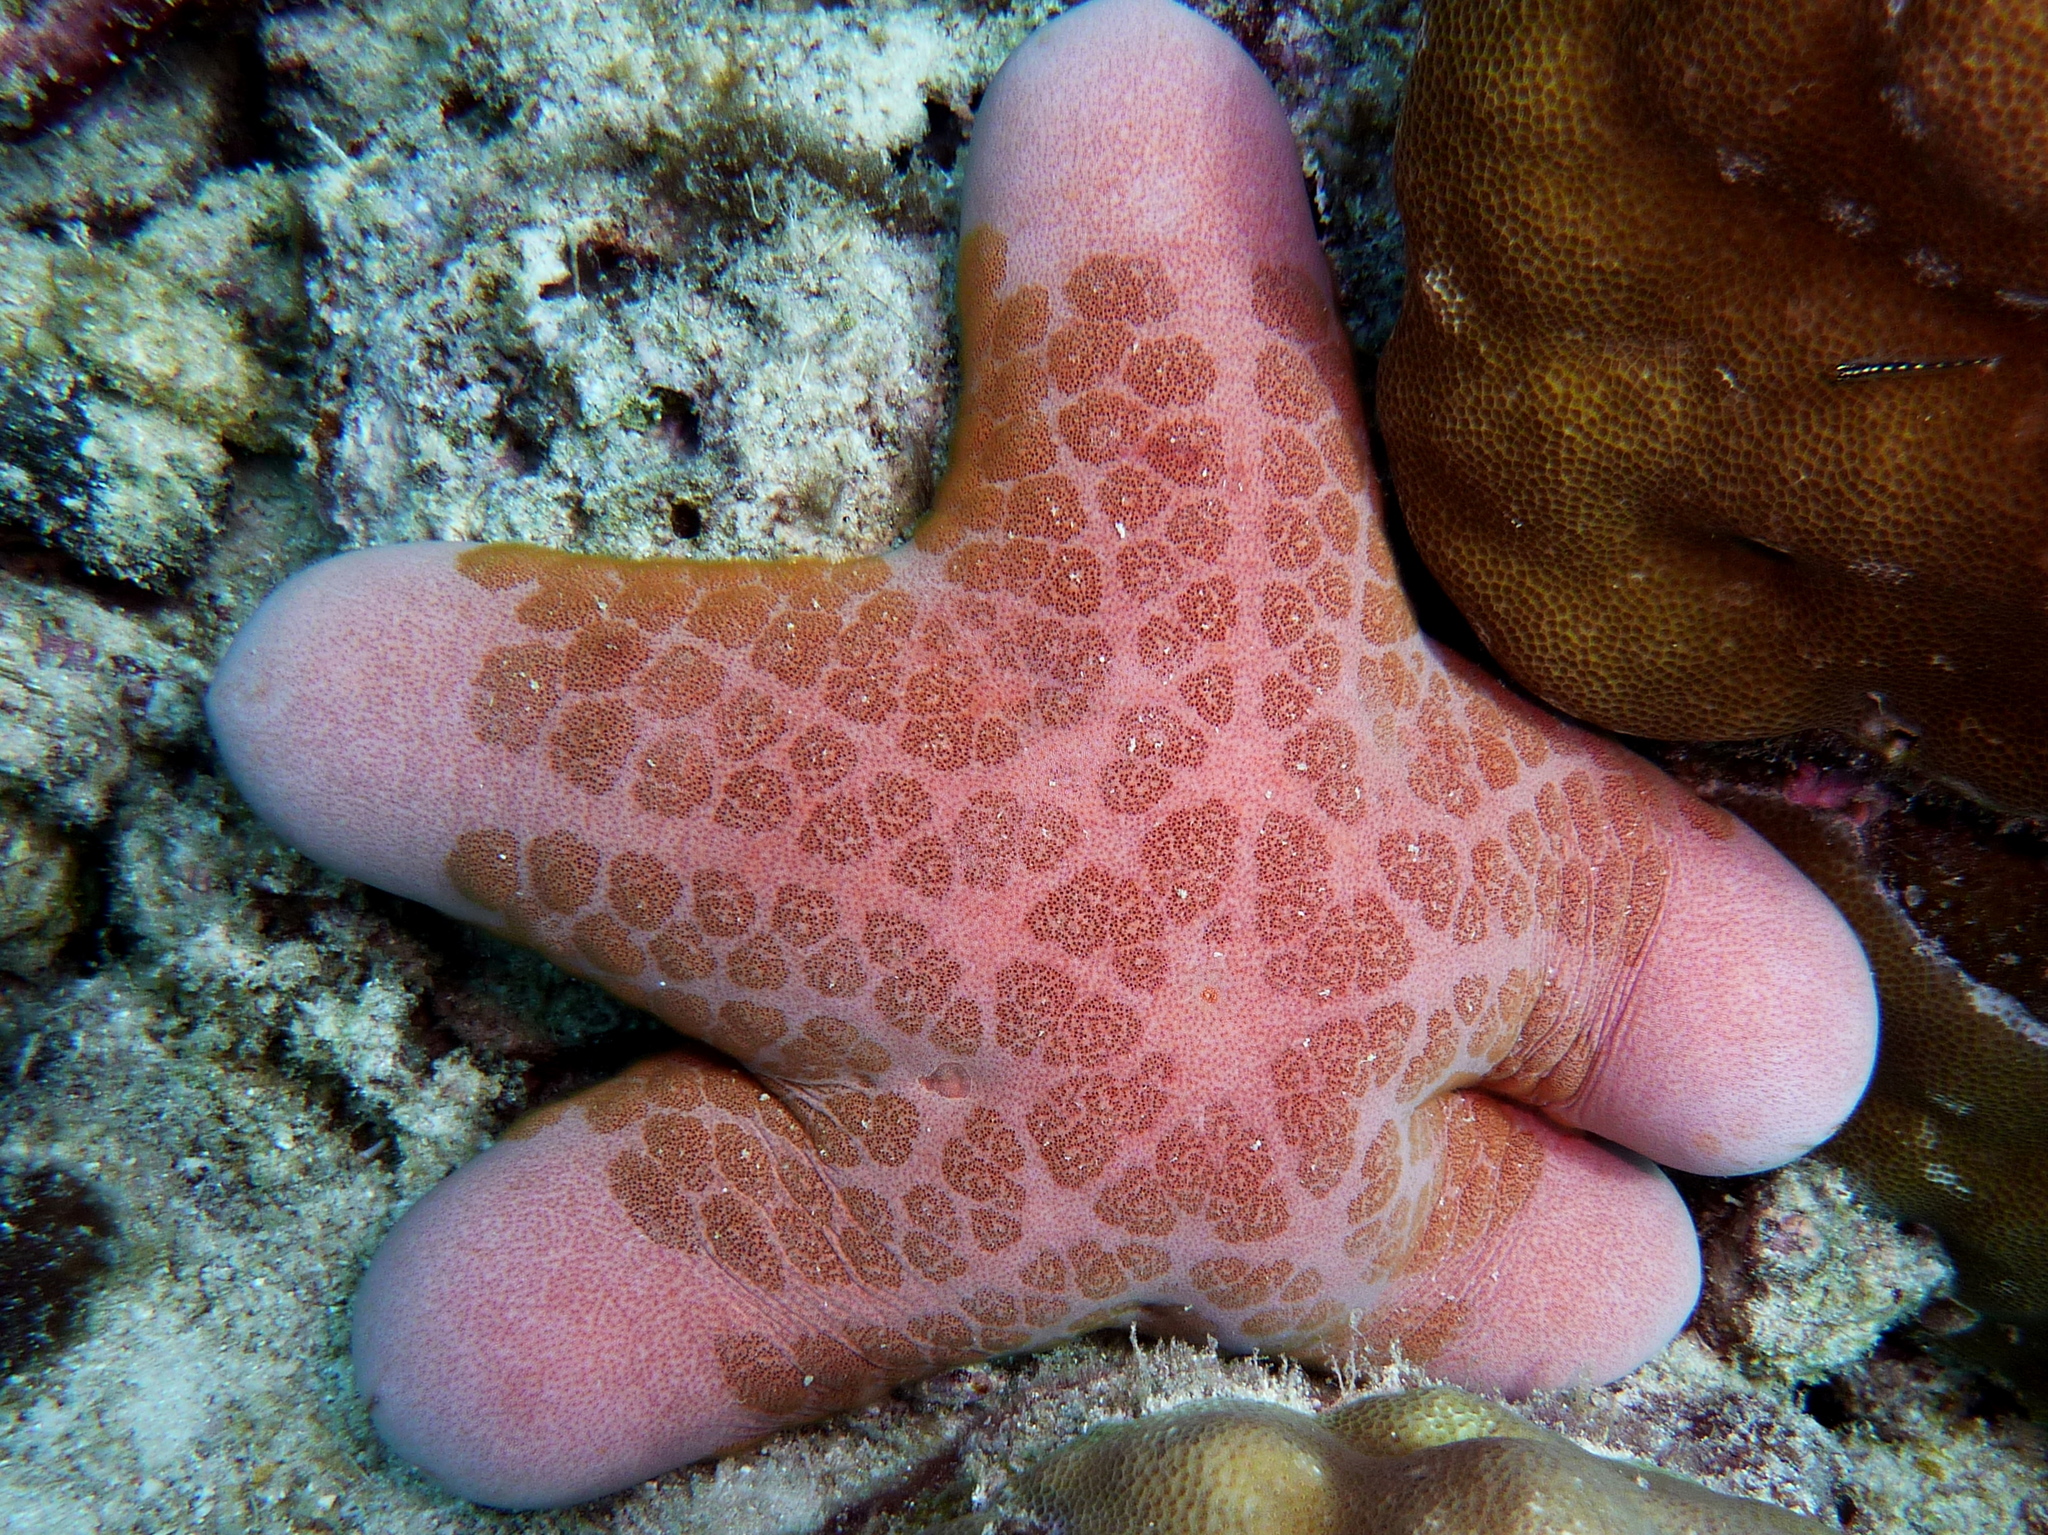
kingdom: Animalia
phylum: Echinodermata
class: Asteroidea
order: Valvatida
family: Oreasteridae
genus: Choriaster
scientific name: Choriaster granulatus
